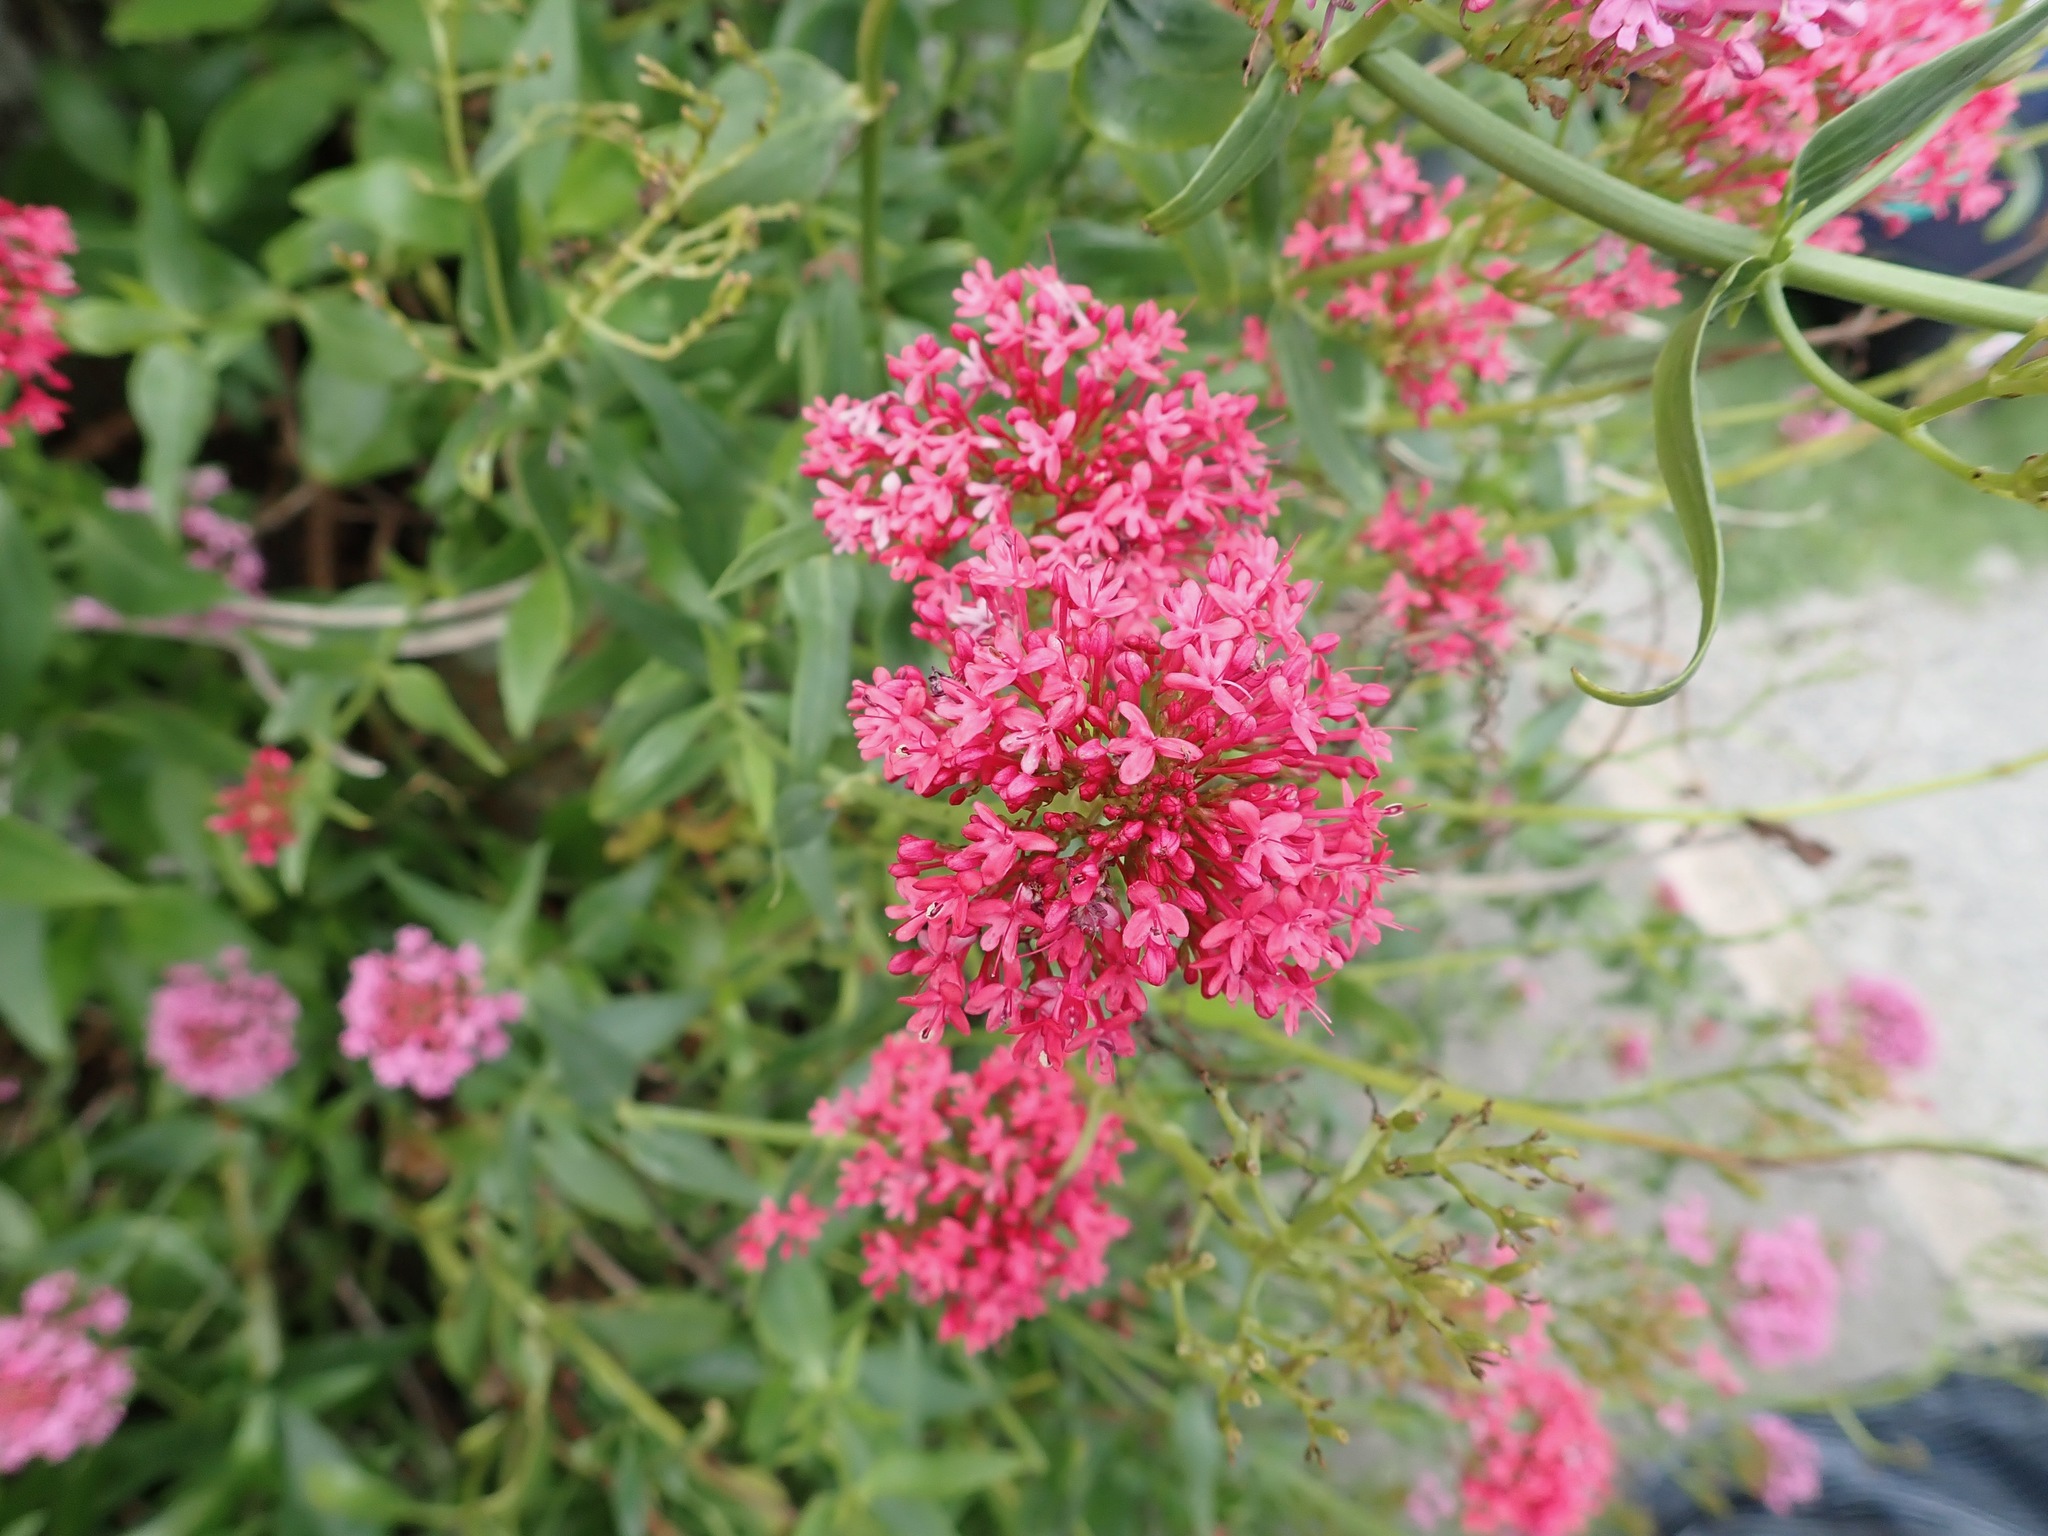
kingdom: Plantae
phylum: Tracheophyta
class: Magnoliopsida
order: Dipsacales
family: Caprifoliaceae
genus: Centranthus
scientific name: Centranthus ruber
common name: Red valerian
